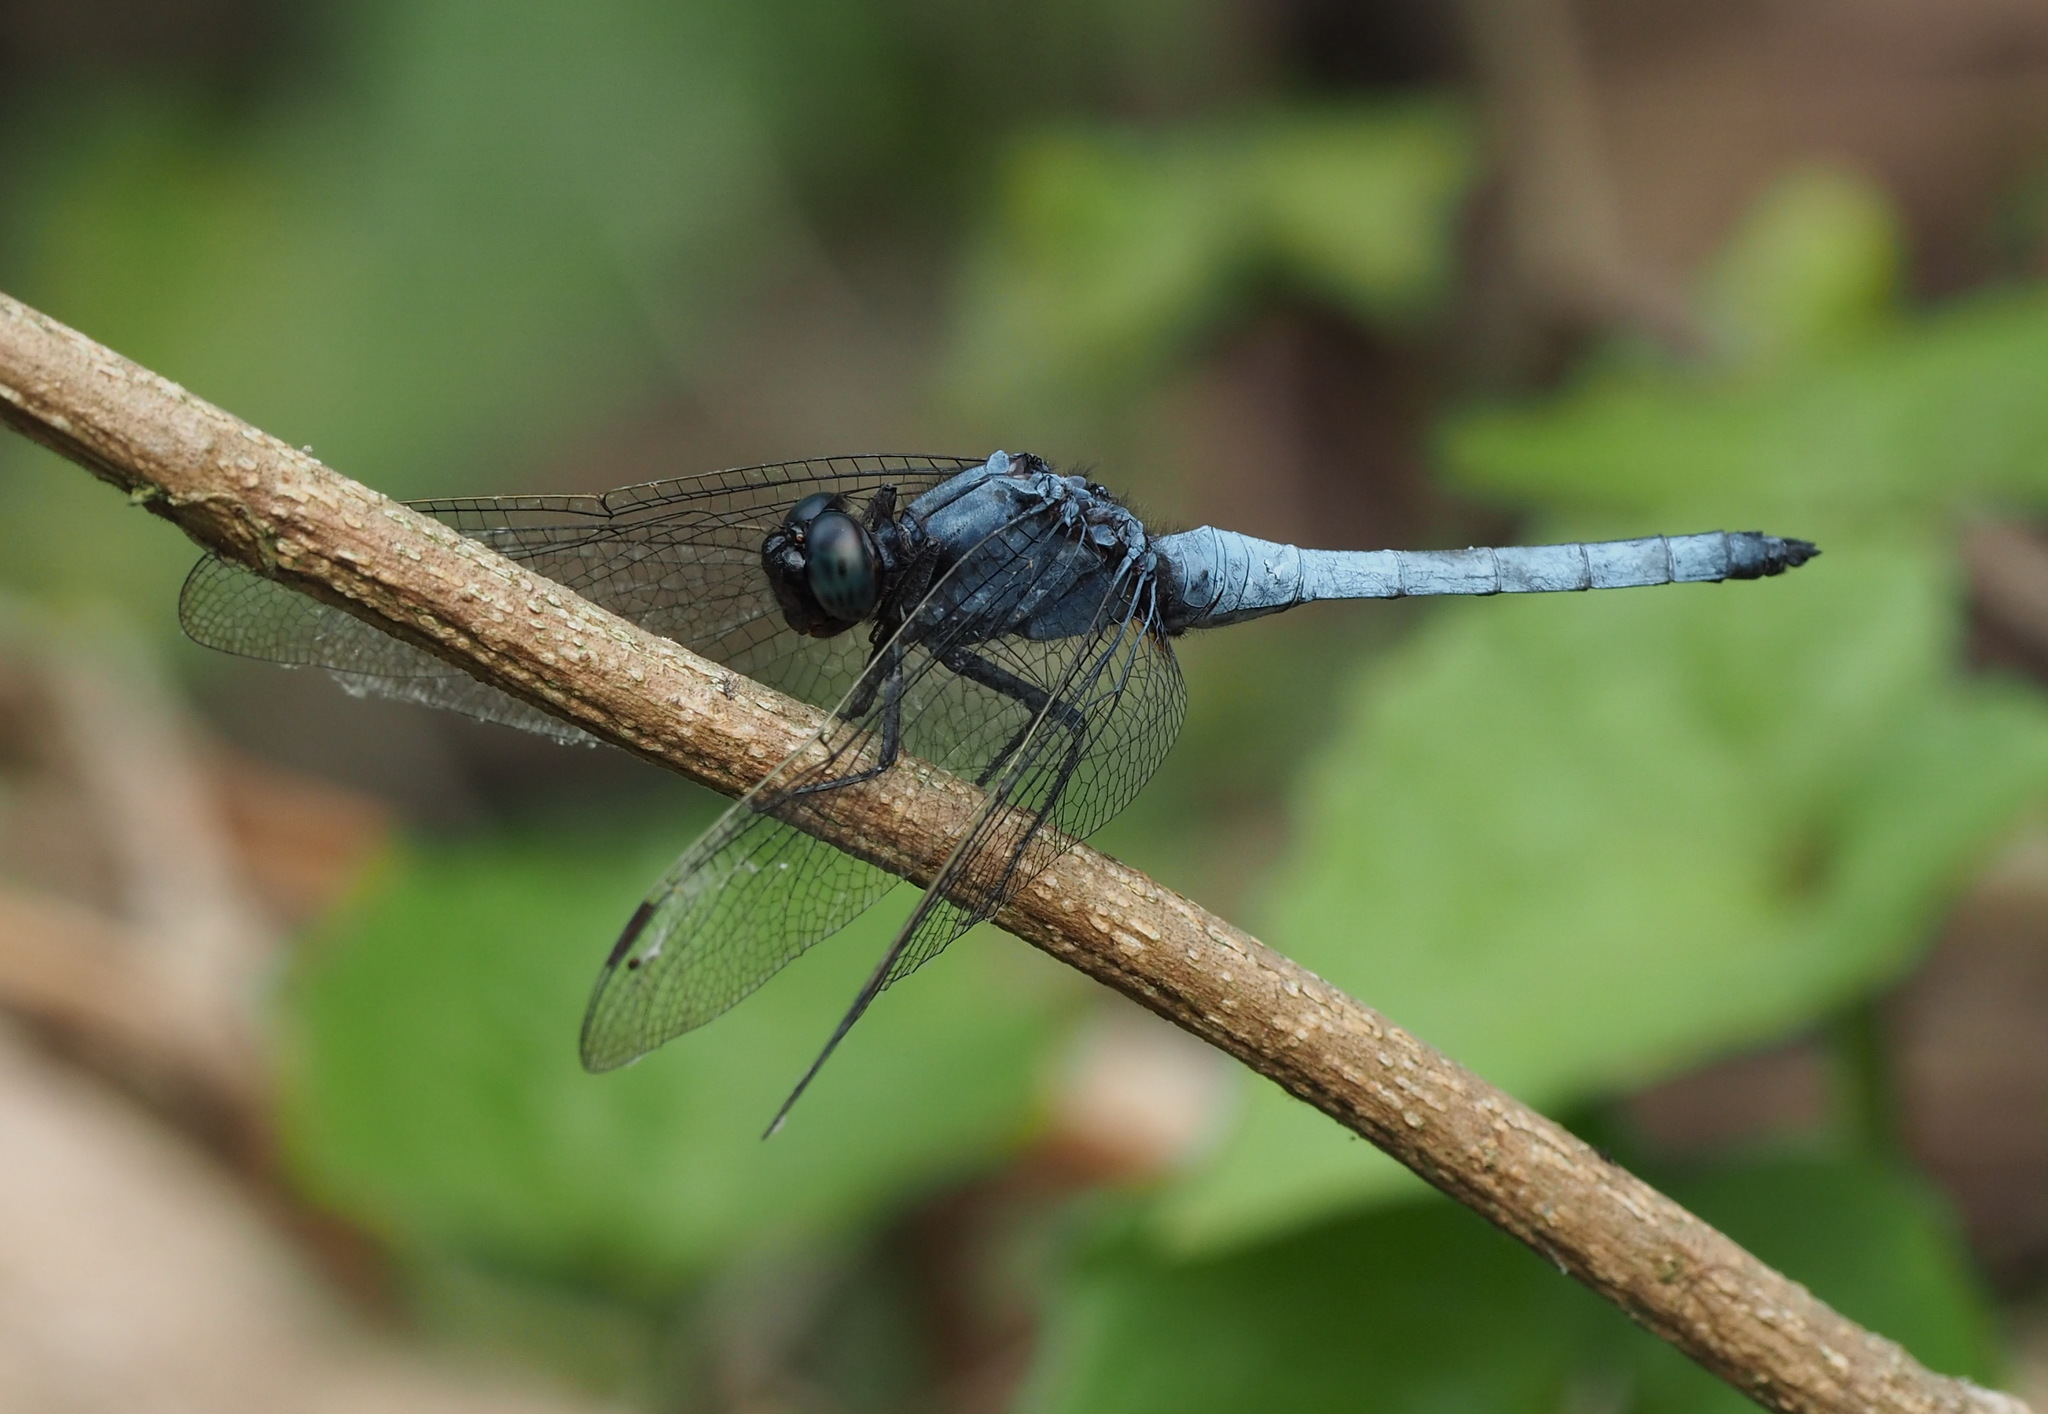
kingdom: Animalia
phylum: Arthropoda
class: Insecta
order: Odonata
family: Libellulidae
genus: Orthetrum
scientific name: Orthetrum glaucum
